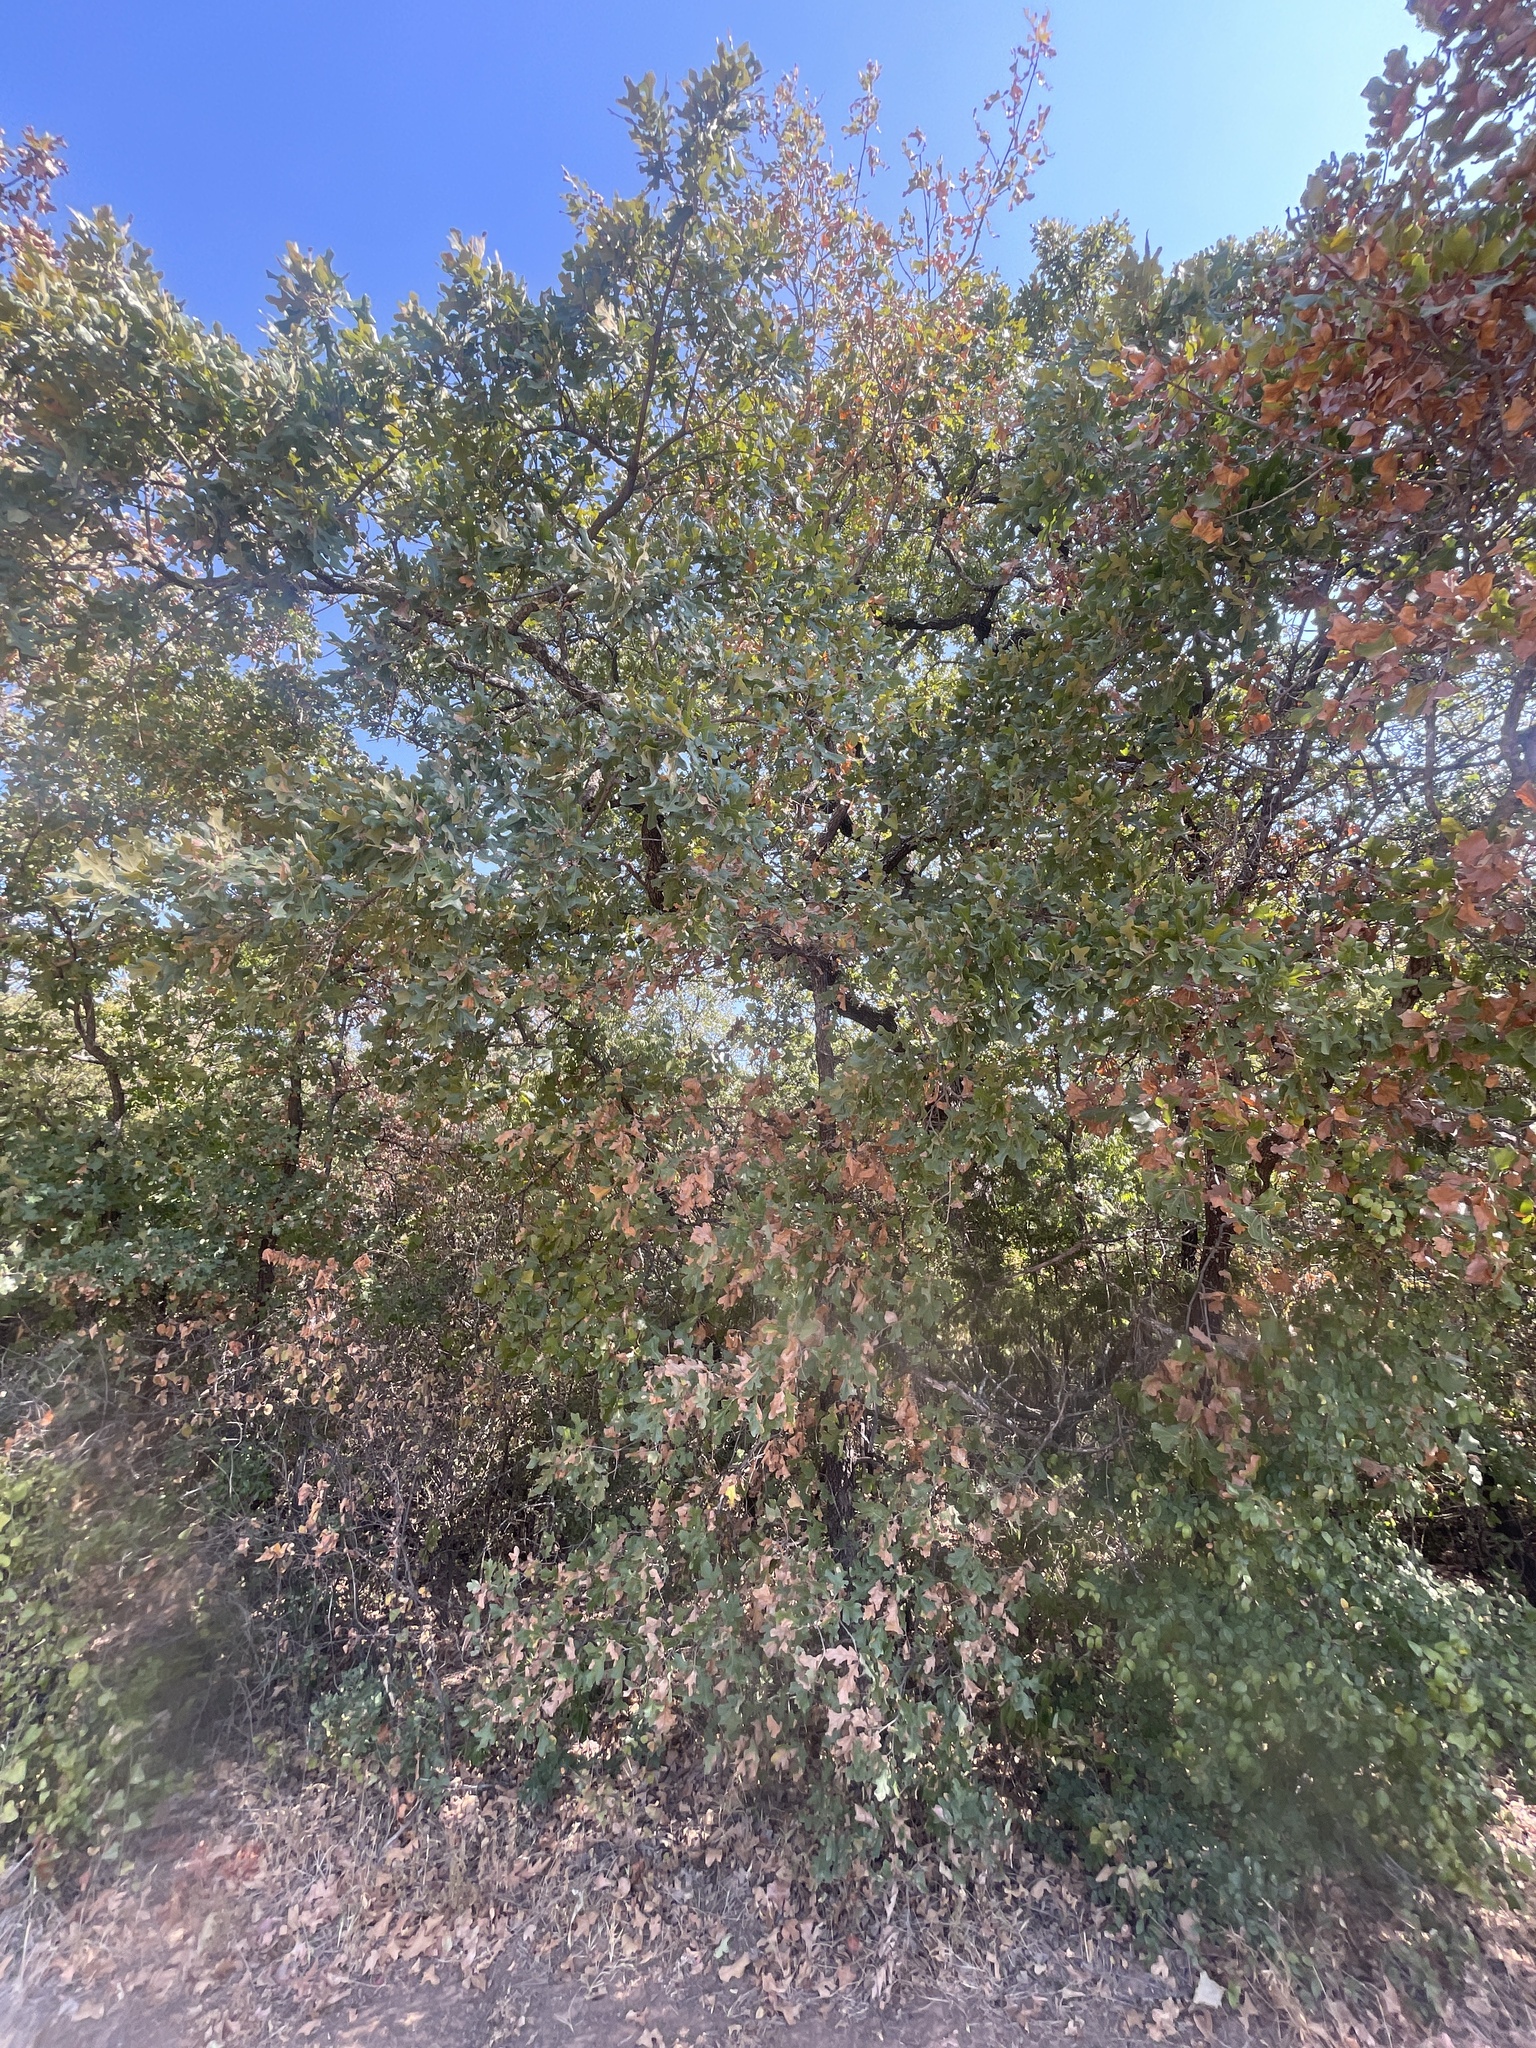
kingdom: Plantae
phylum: Tracheophyta
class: Magnoliopsida
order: Fagales
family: Fagaceae
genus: Quercus
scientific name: Quercus stellata
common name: Post oak
